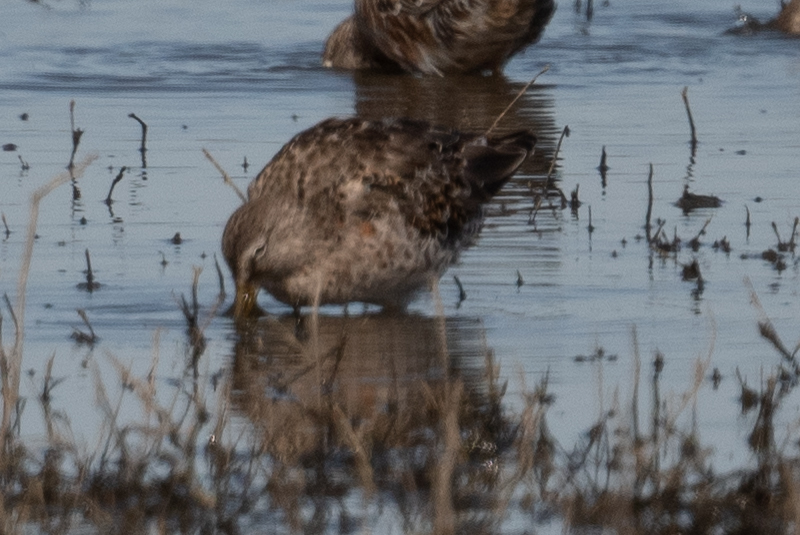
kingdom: Animalia
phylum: Chordata
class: Aves
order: Charadriiformes
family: Scolopacidae
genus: Limnodromus
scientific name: Limnodromus scolopaceus
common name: Long-billed dowitcher
